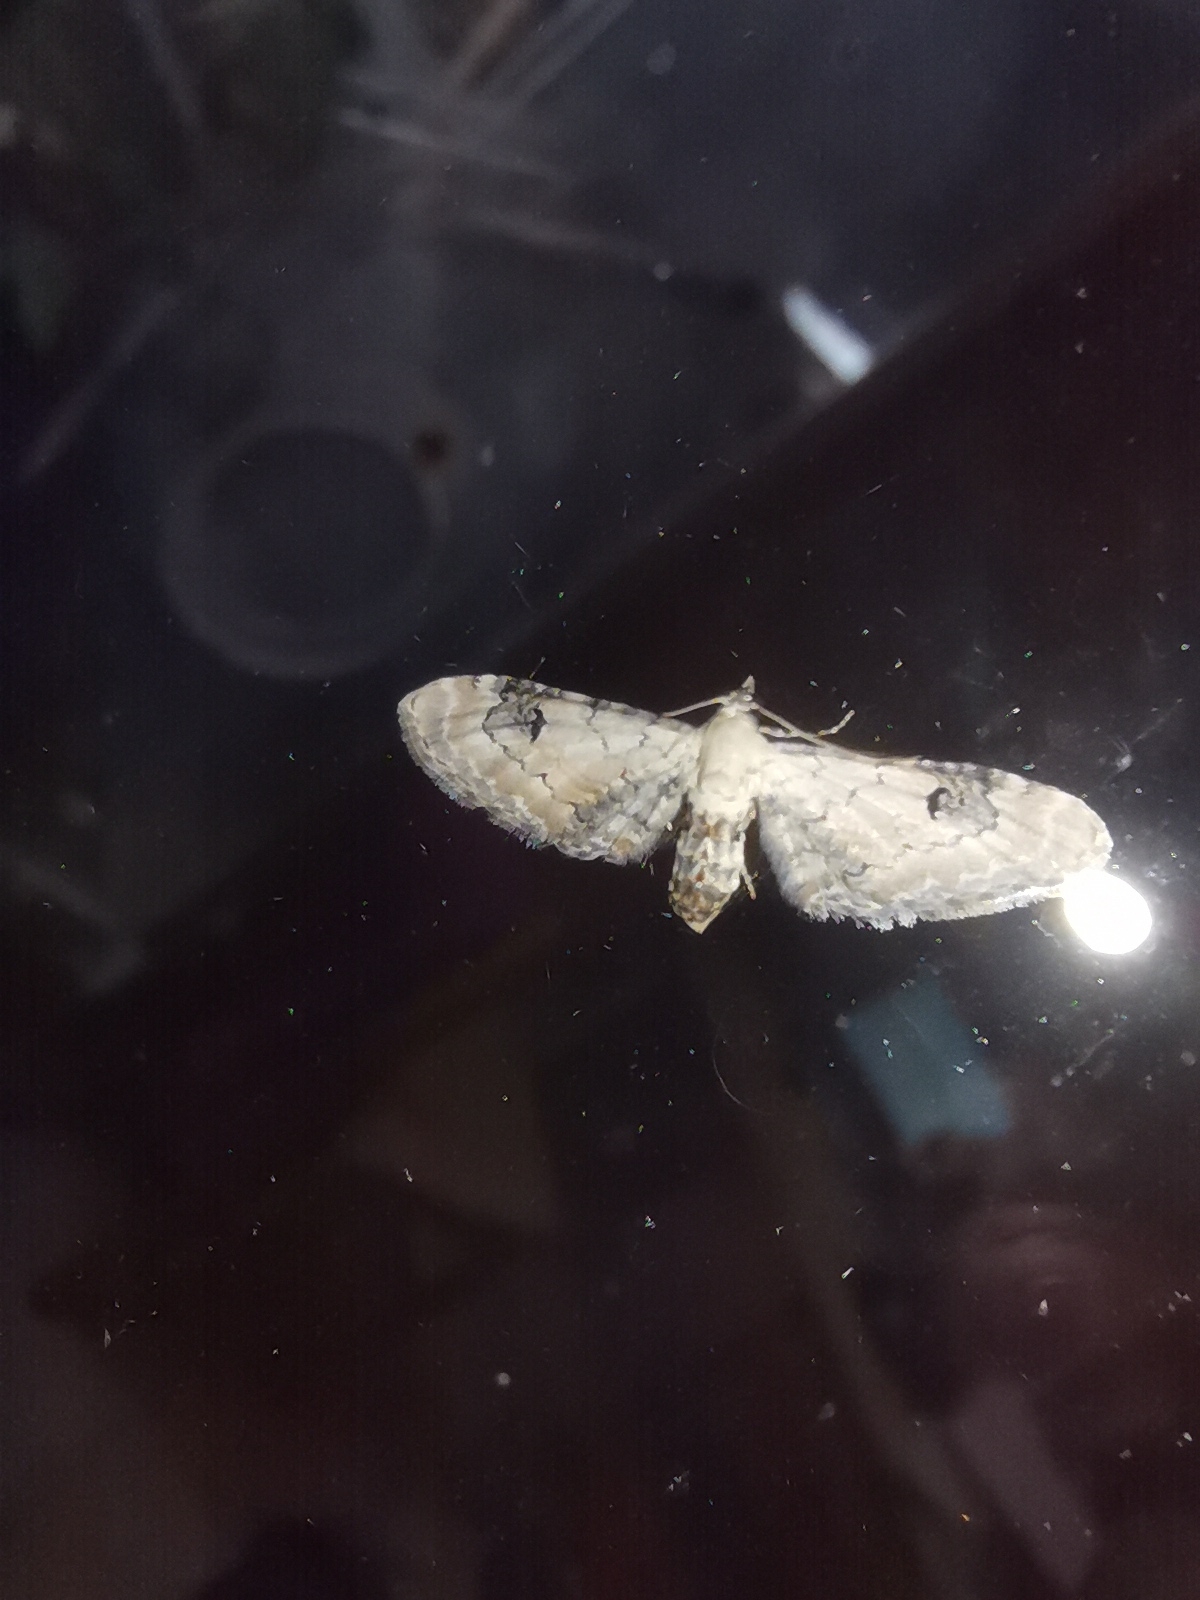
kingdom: Animalia
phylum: Arthropoda
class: Insecta
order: Lepidoptera
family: Geometridae
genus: Eupithecia
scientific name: Eupithecia centaureata
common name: Lime-speck pug
